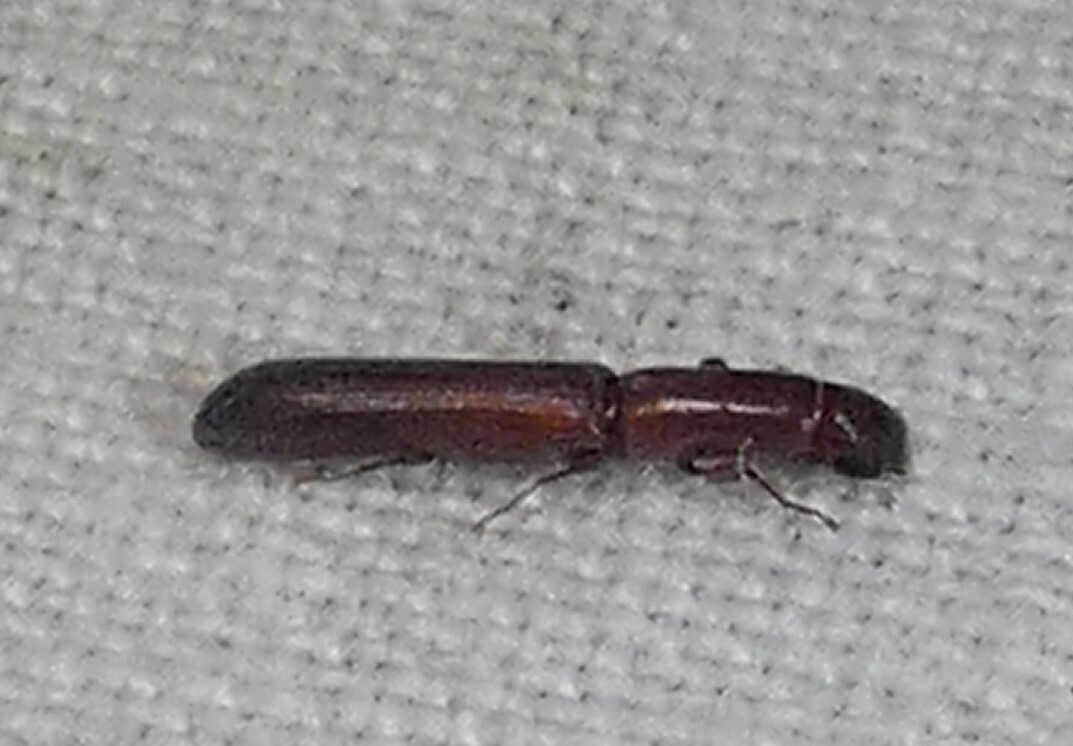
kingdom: Animalia
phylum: Arthropoda
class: Insecta
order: Coleoptera
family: Zopheridae
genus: Nematidium
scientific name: Nematidium filiforme
